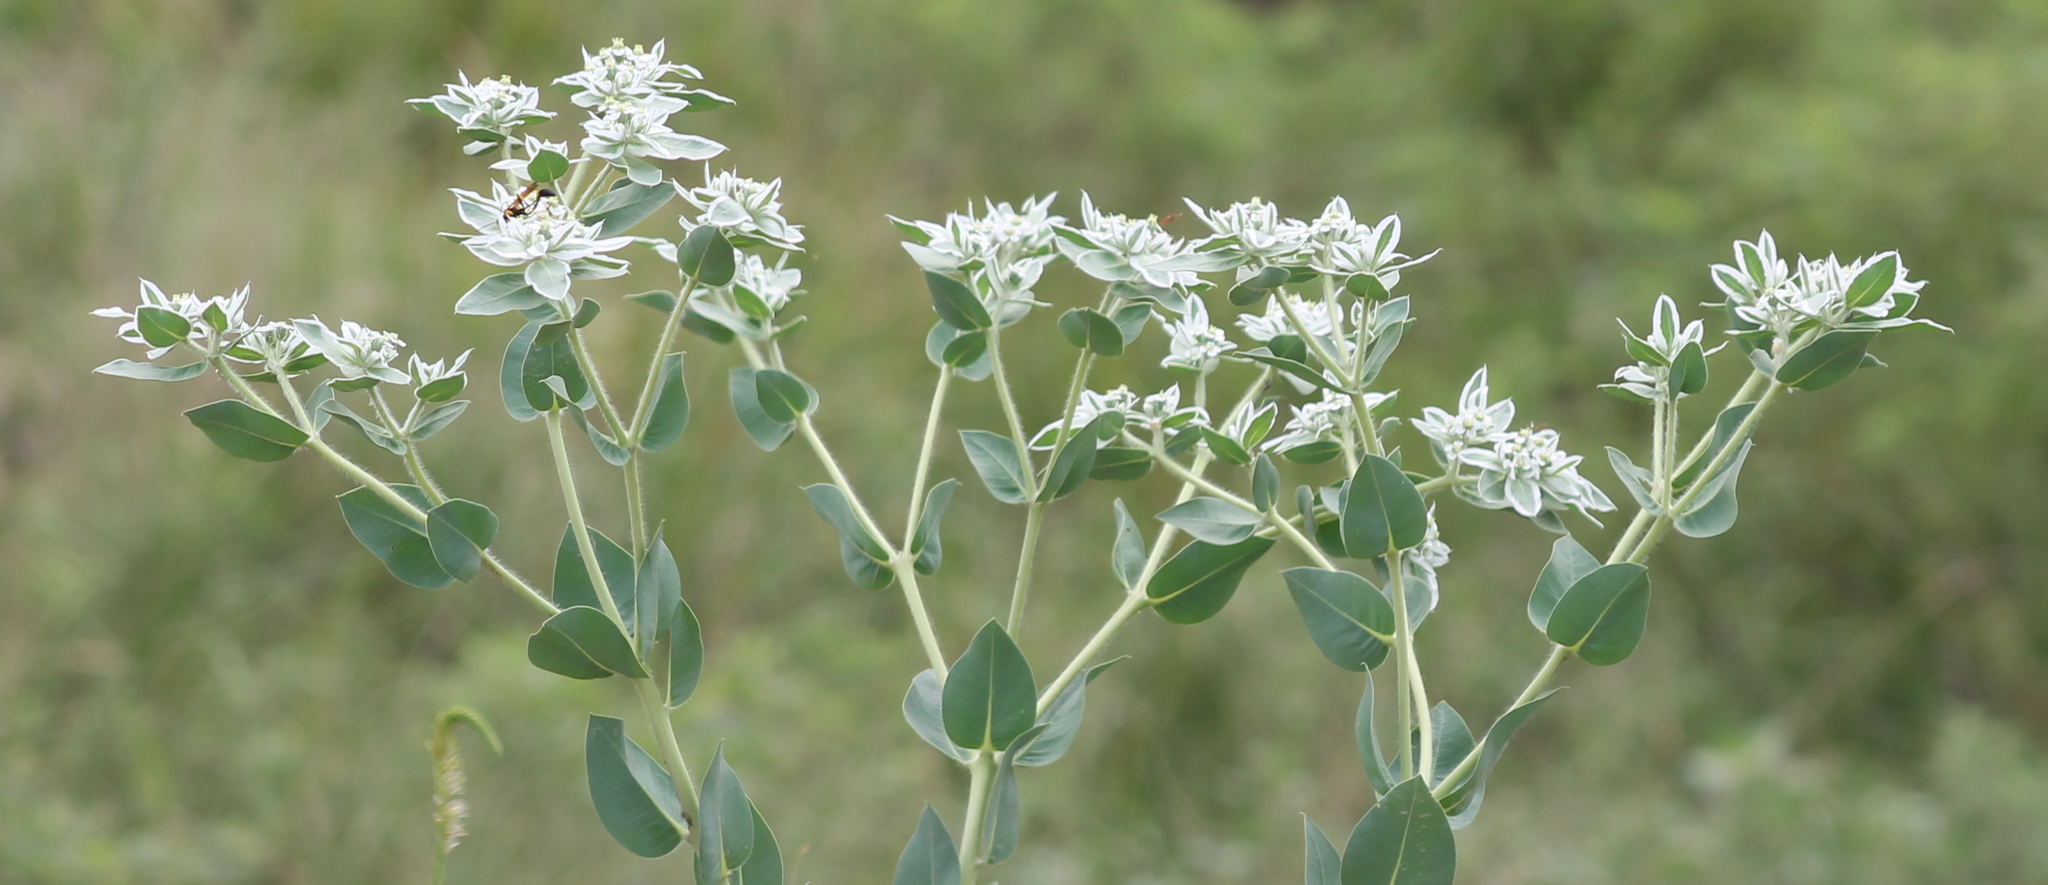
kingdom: Plantae
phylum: Tracheophyta
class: Magnoliopsida
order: Malpighiales
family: Euphorbiaceae
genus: Euphorbia
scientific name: Euphorbia marginata
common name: Ghostweed
